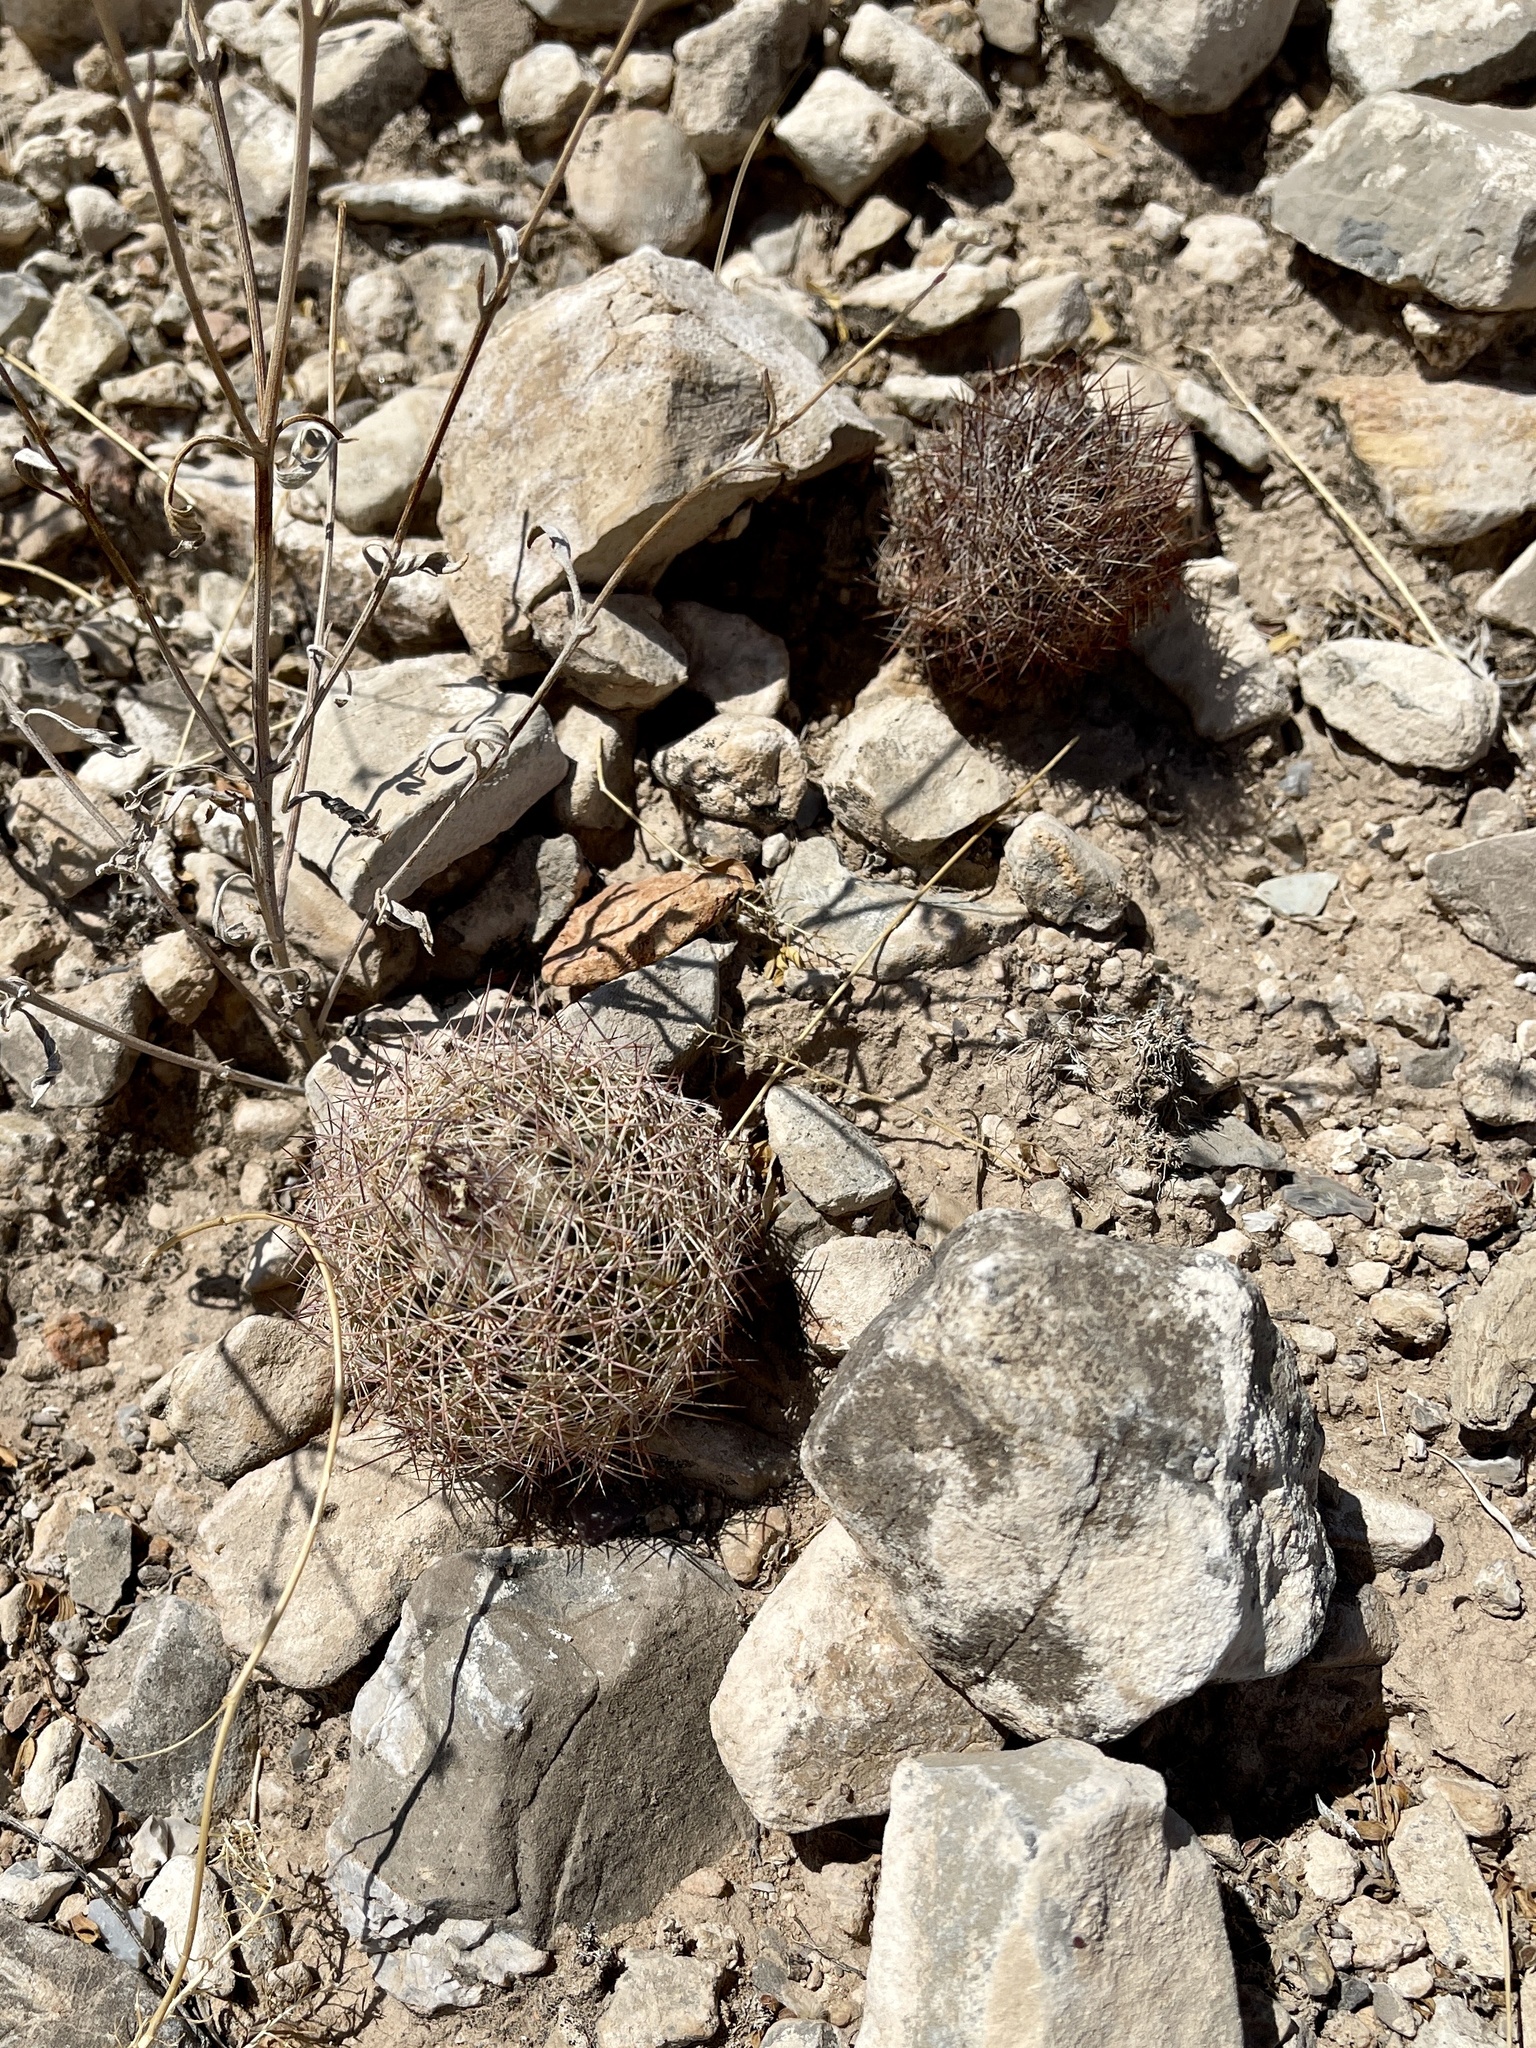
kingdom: Plantae
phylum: Tracheophyta
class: Magnoliopsida
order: Caryophyllales
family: Cactaceae
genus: Sclerocactus
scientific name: Sclerocactus intertextus
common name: White fish-hook cactus
